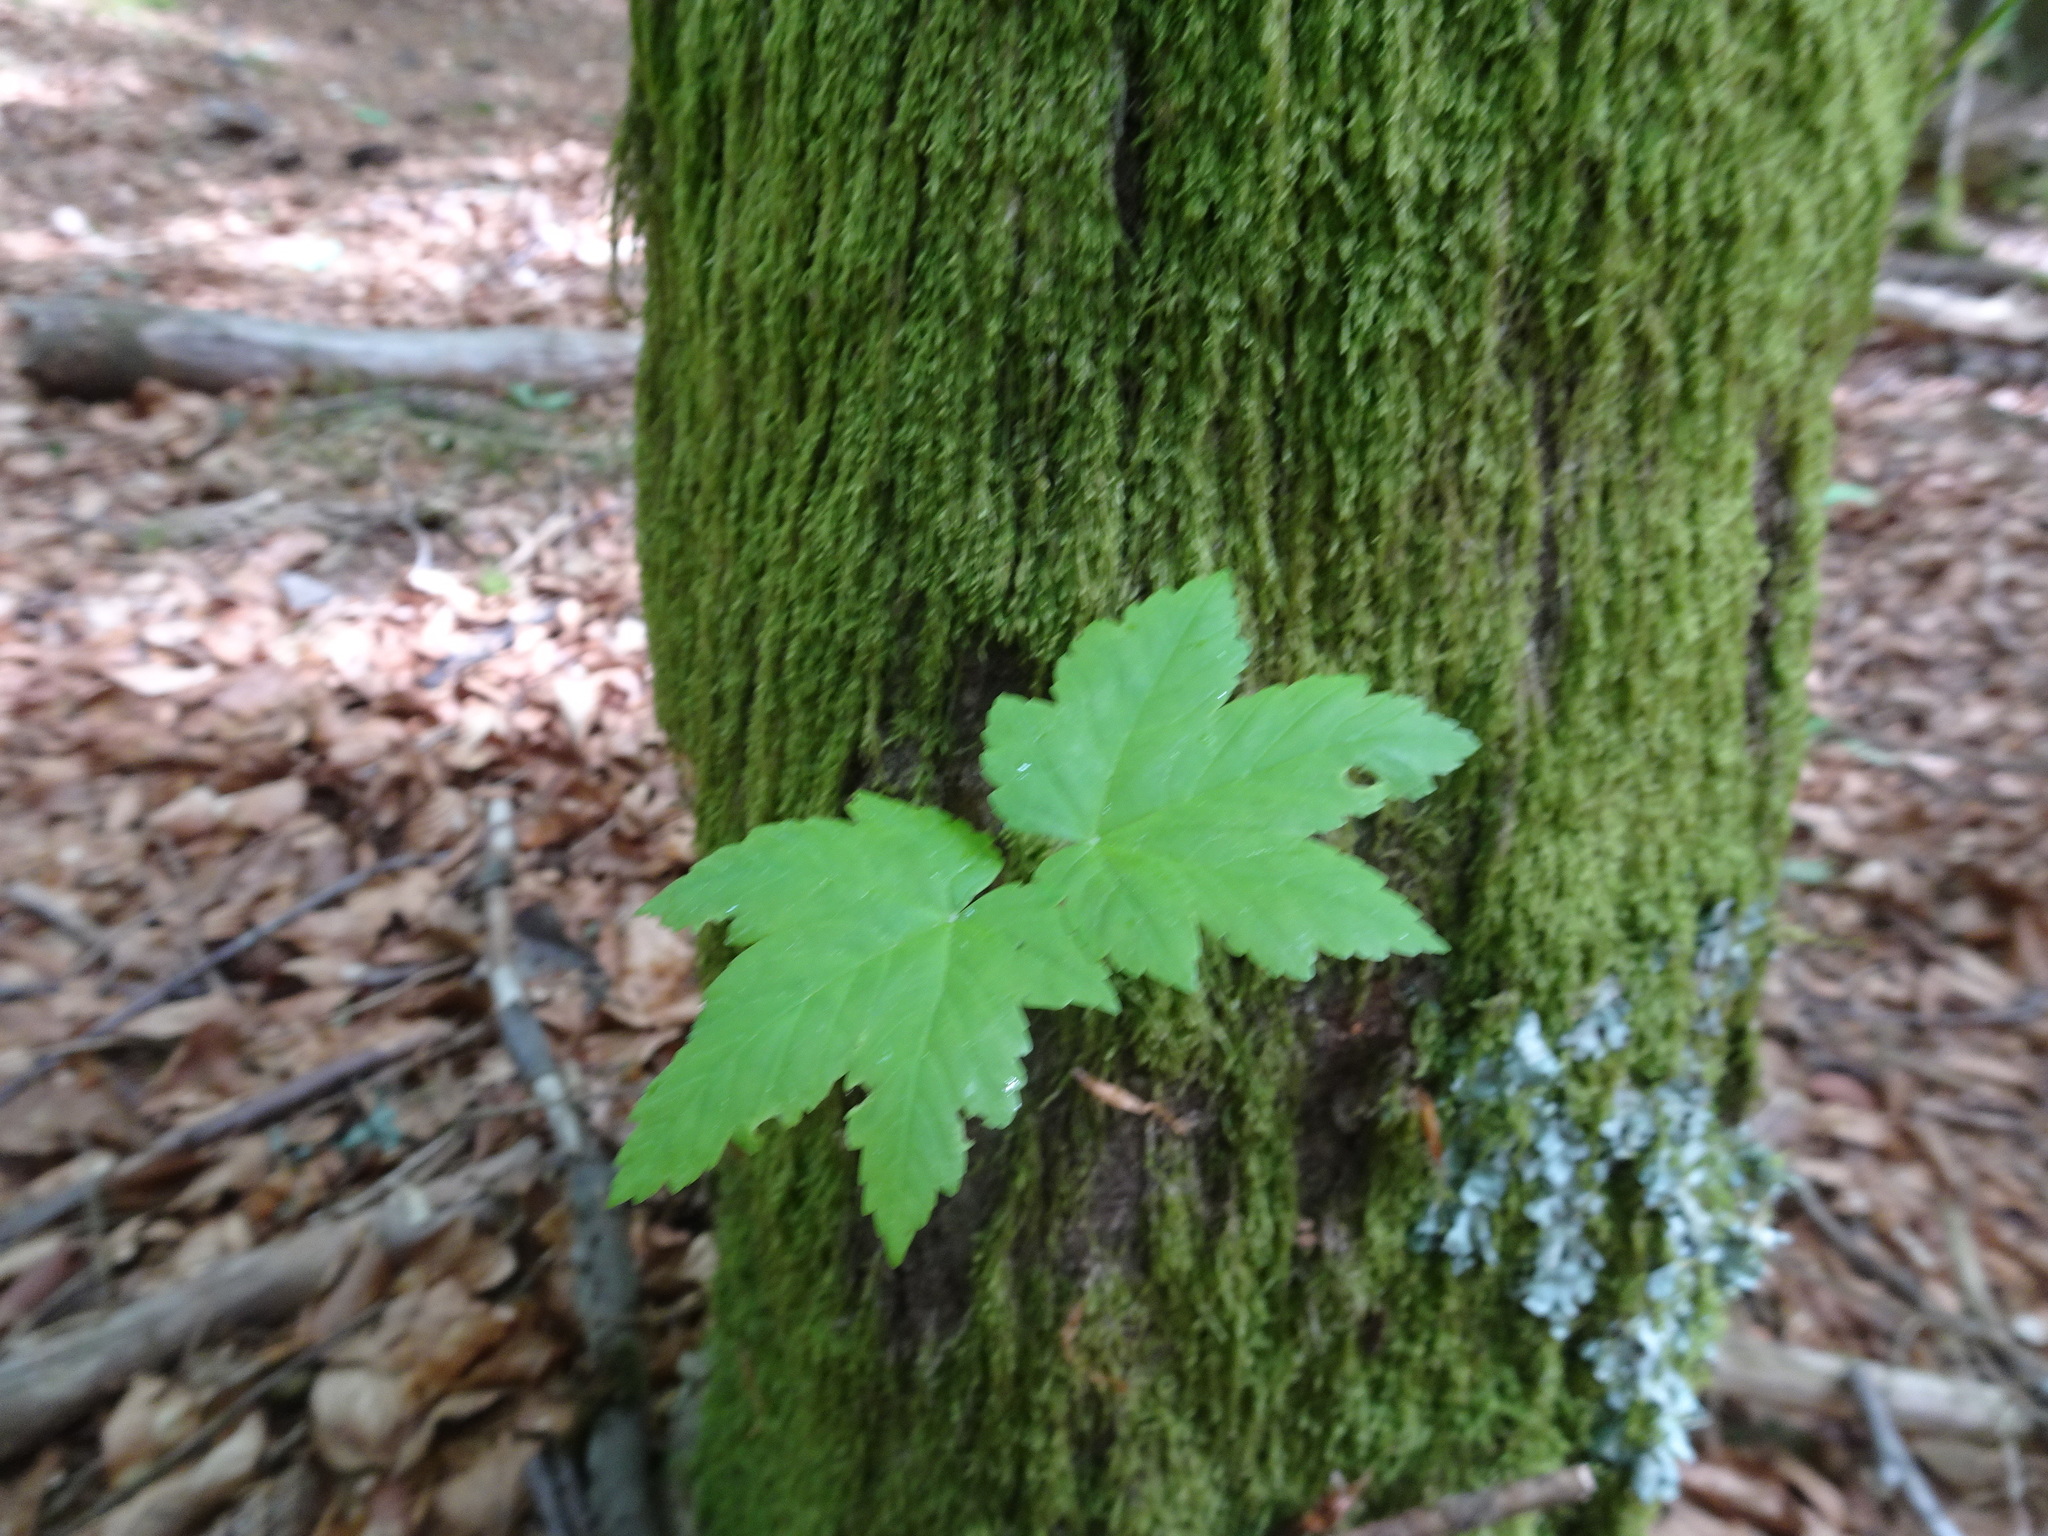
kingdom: Plantae
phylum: Tracheophyta
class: Magnoliopsida
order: Sapindales
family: Sapindaceae
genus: Acer
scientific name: Acer pseudoplatanus
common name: Sycamore
